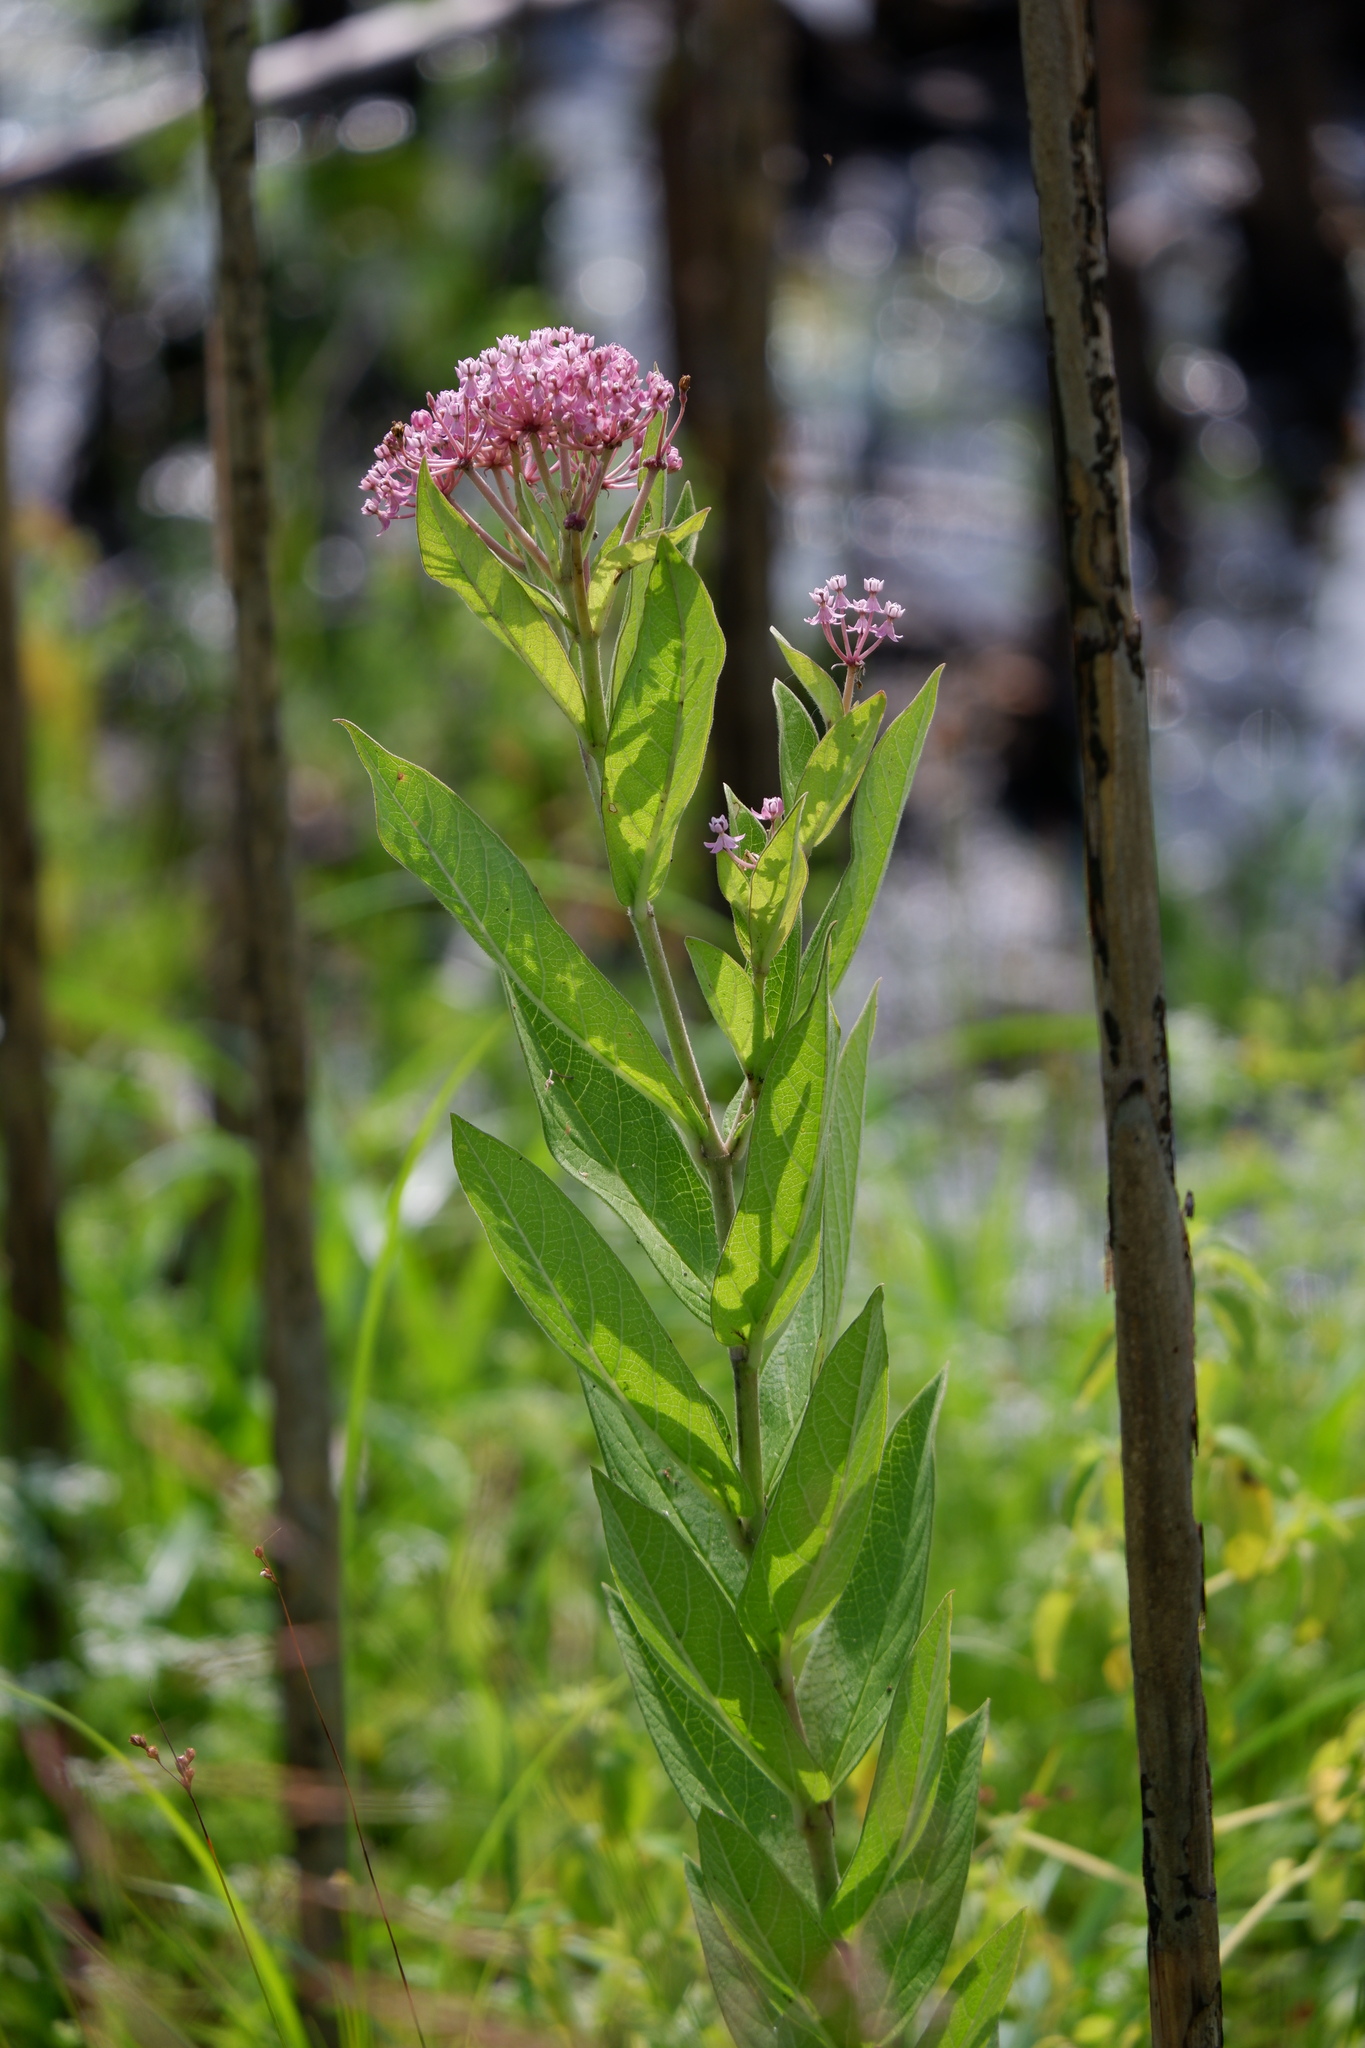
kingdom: Plantae
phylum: Tracheophyta
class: Magnoliopsida
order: Gentianales
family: Apocynaceae
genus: Asclepias
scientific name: Asclepias incarnata
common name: Swamp milkweed
